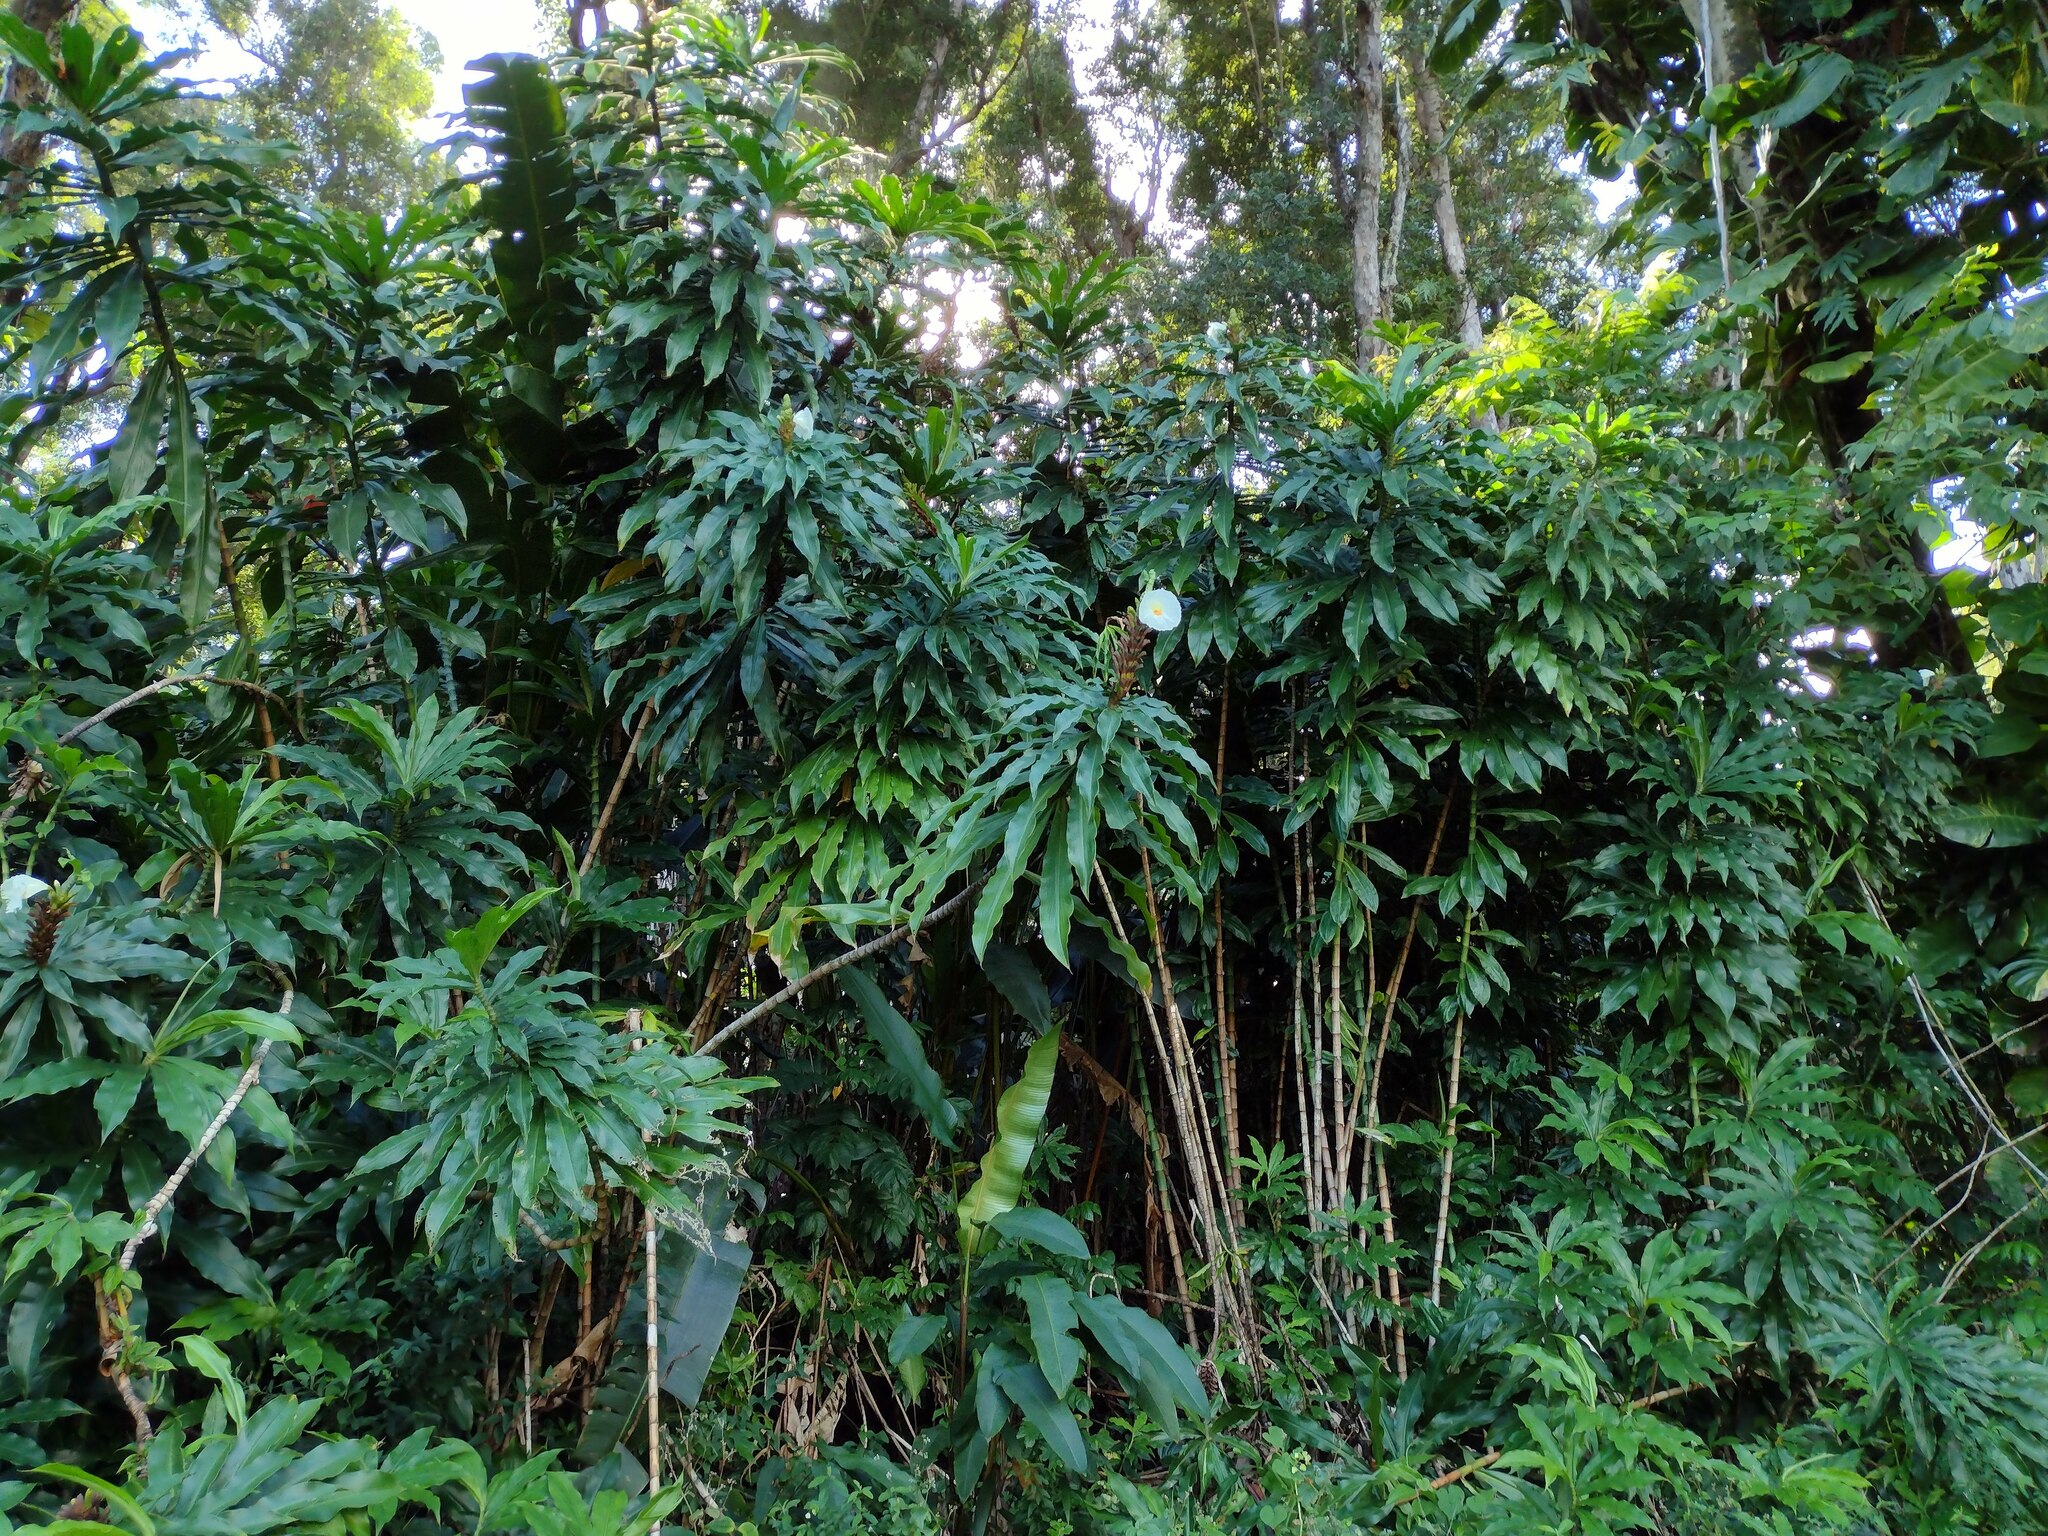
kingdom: Plantae
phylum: Tracheophyta
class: Liliopsida
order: Zingiberales
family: Costaceae
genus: Dimerocostus
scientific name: Dimerocostus strobilaceus
